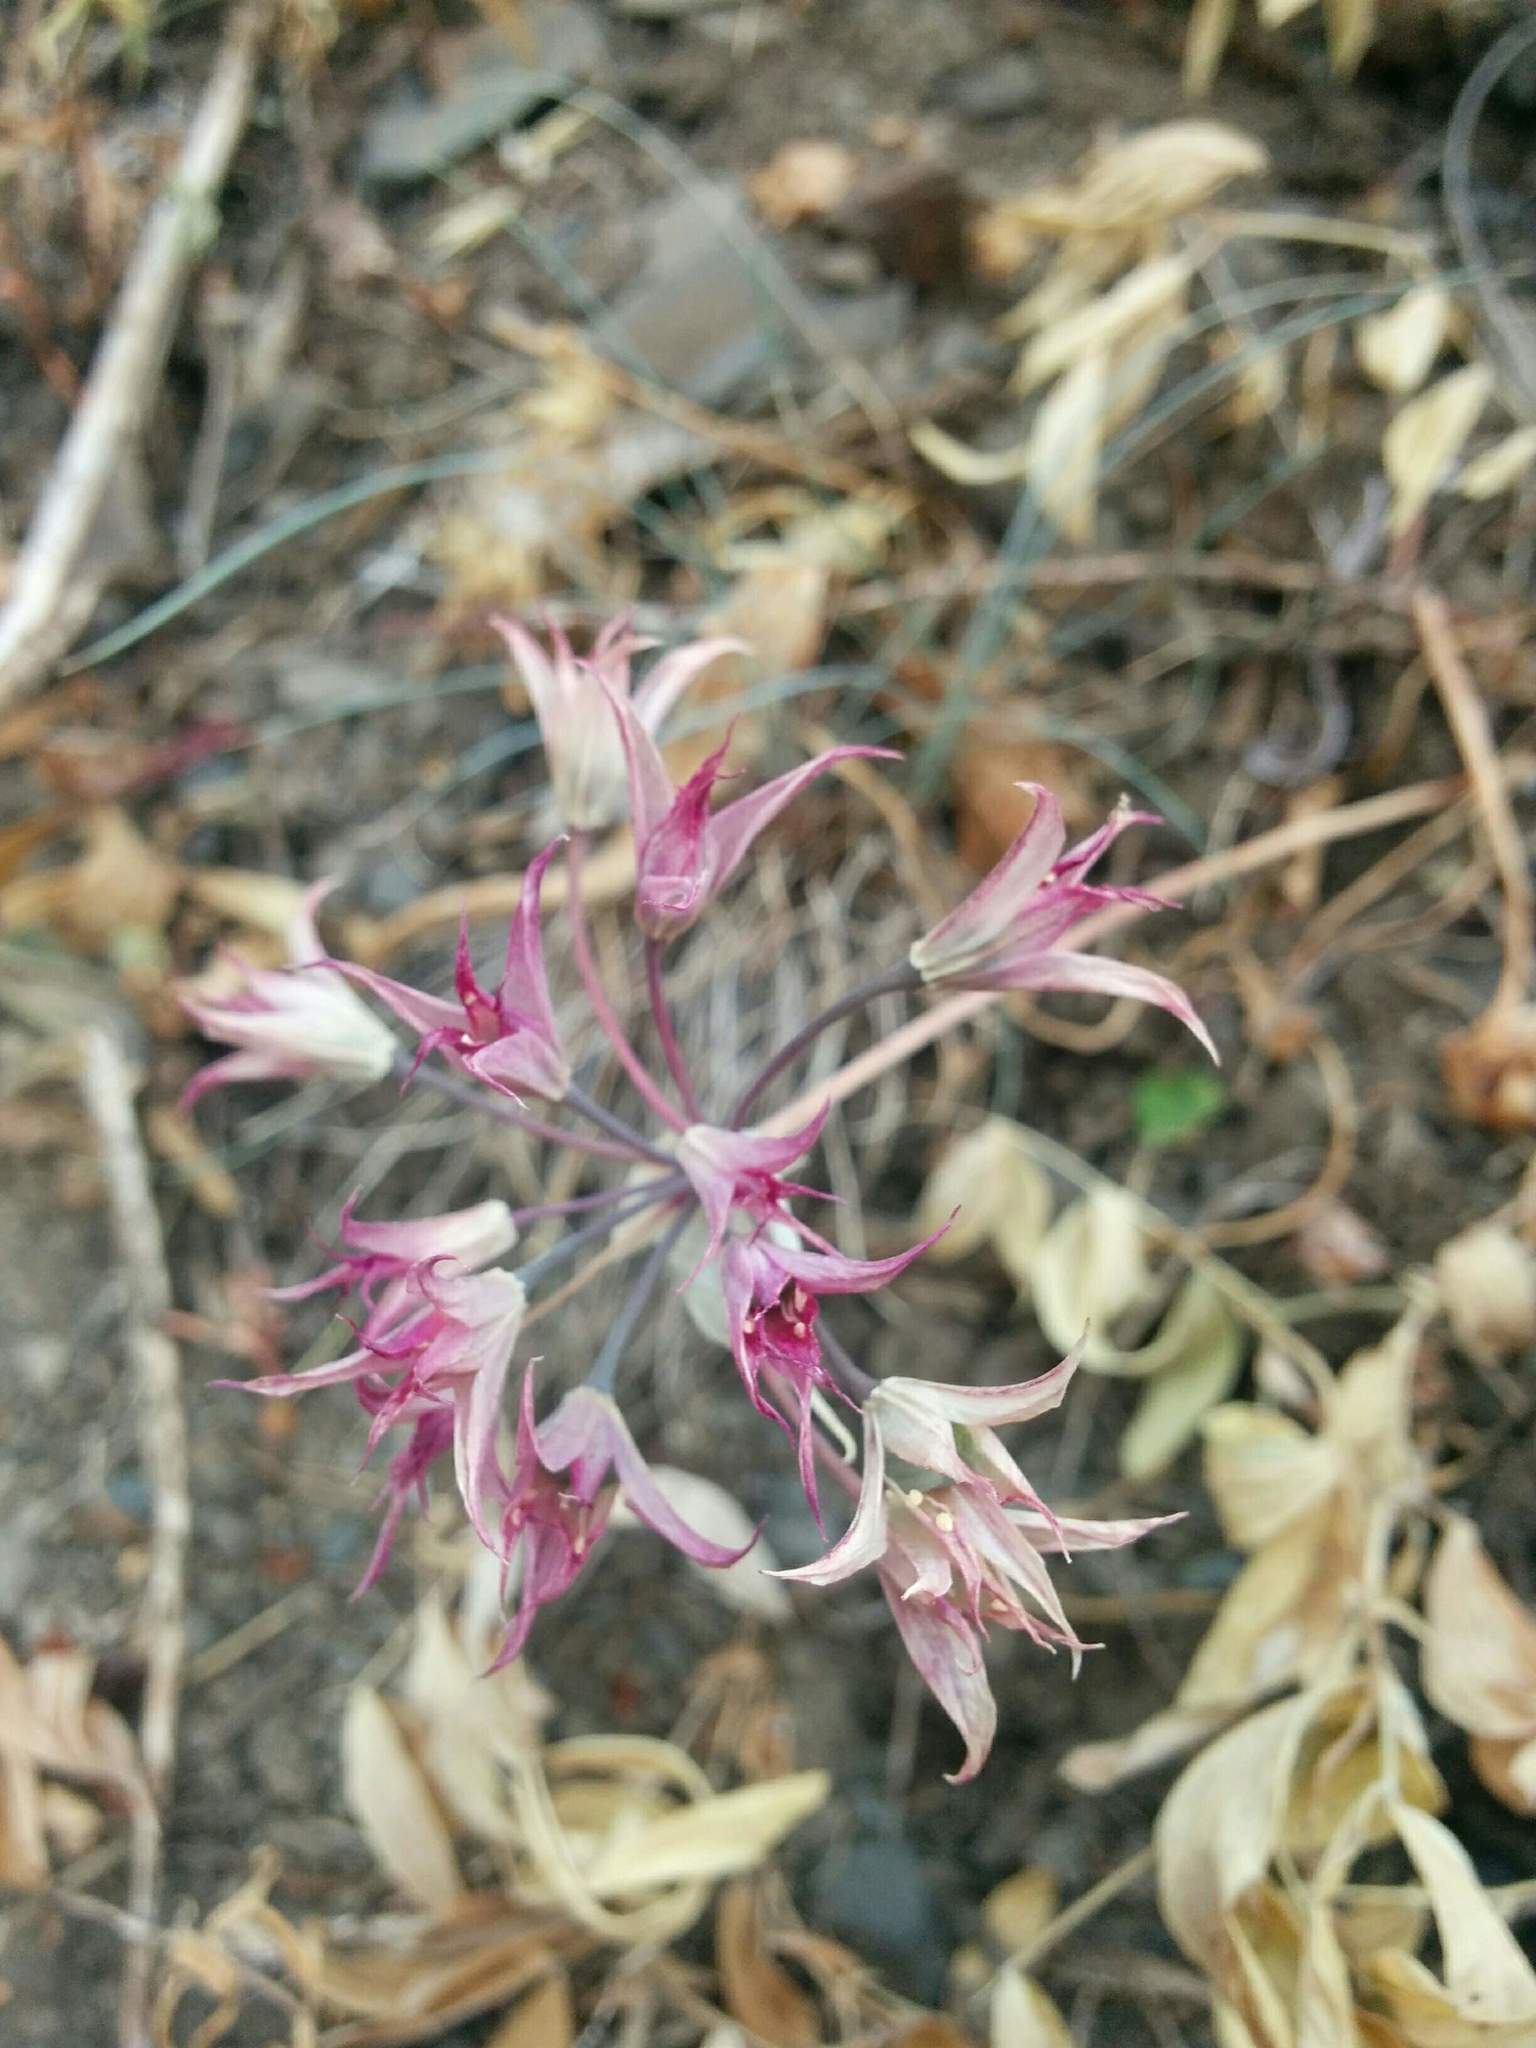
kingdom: Plantae
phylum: Tracheophyta
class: Liliopsida
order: Asparagales
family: Amaryllidaceae
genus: Allium
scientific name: Allium acuminatum
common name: Hooker's onion
